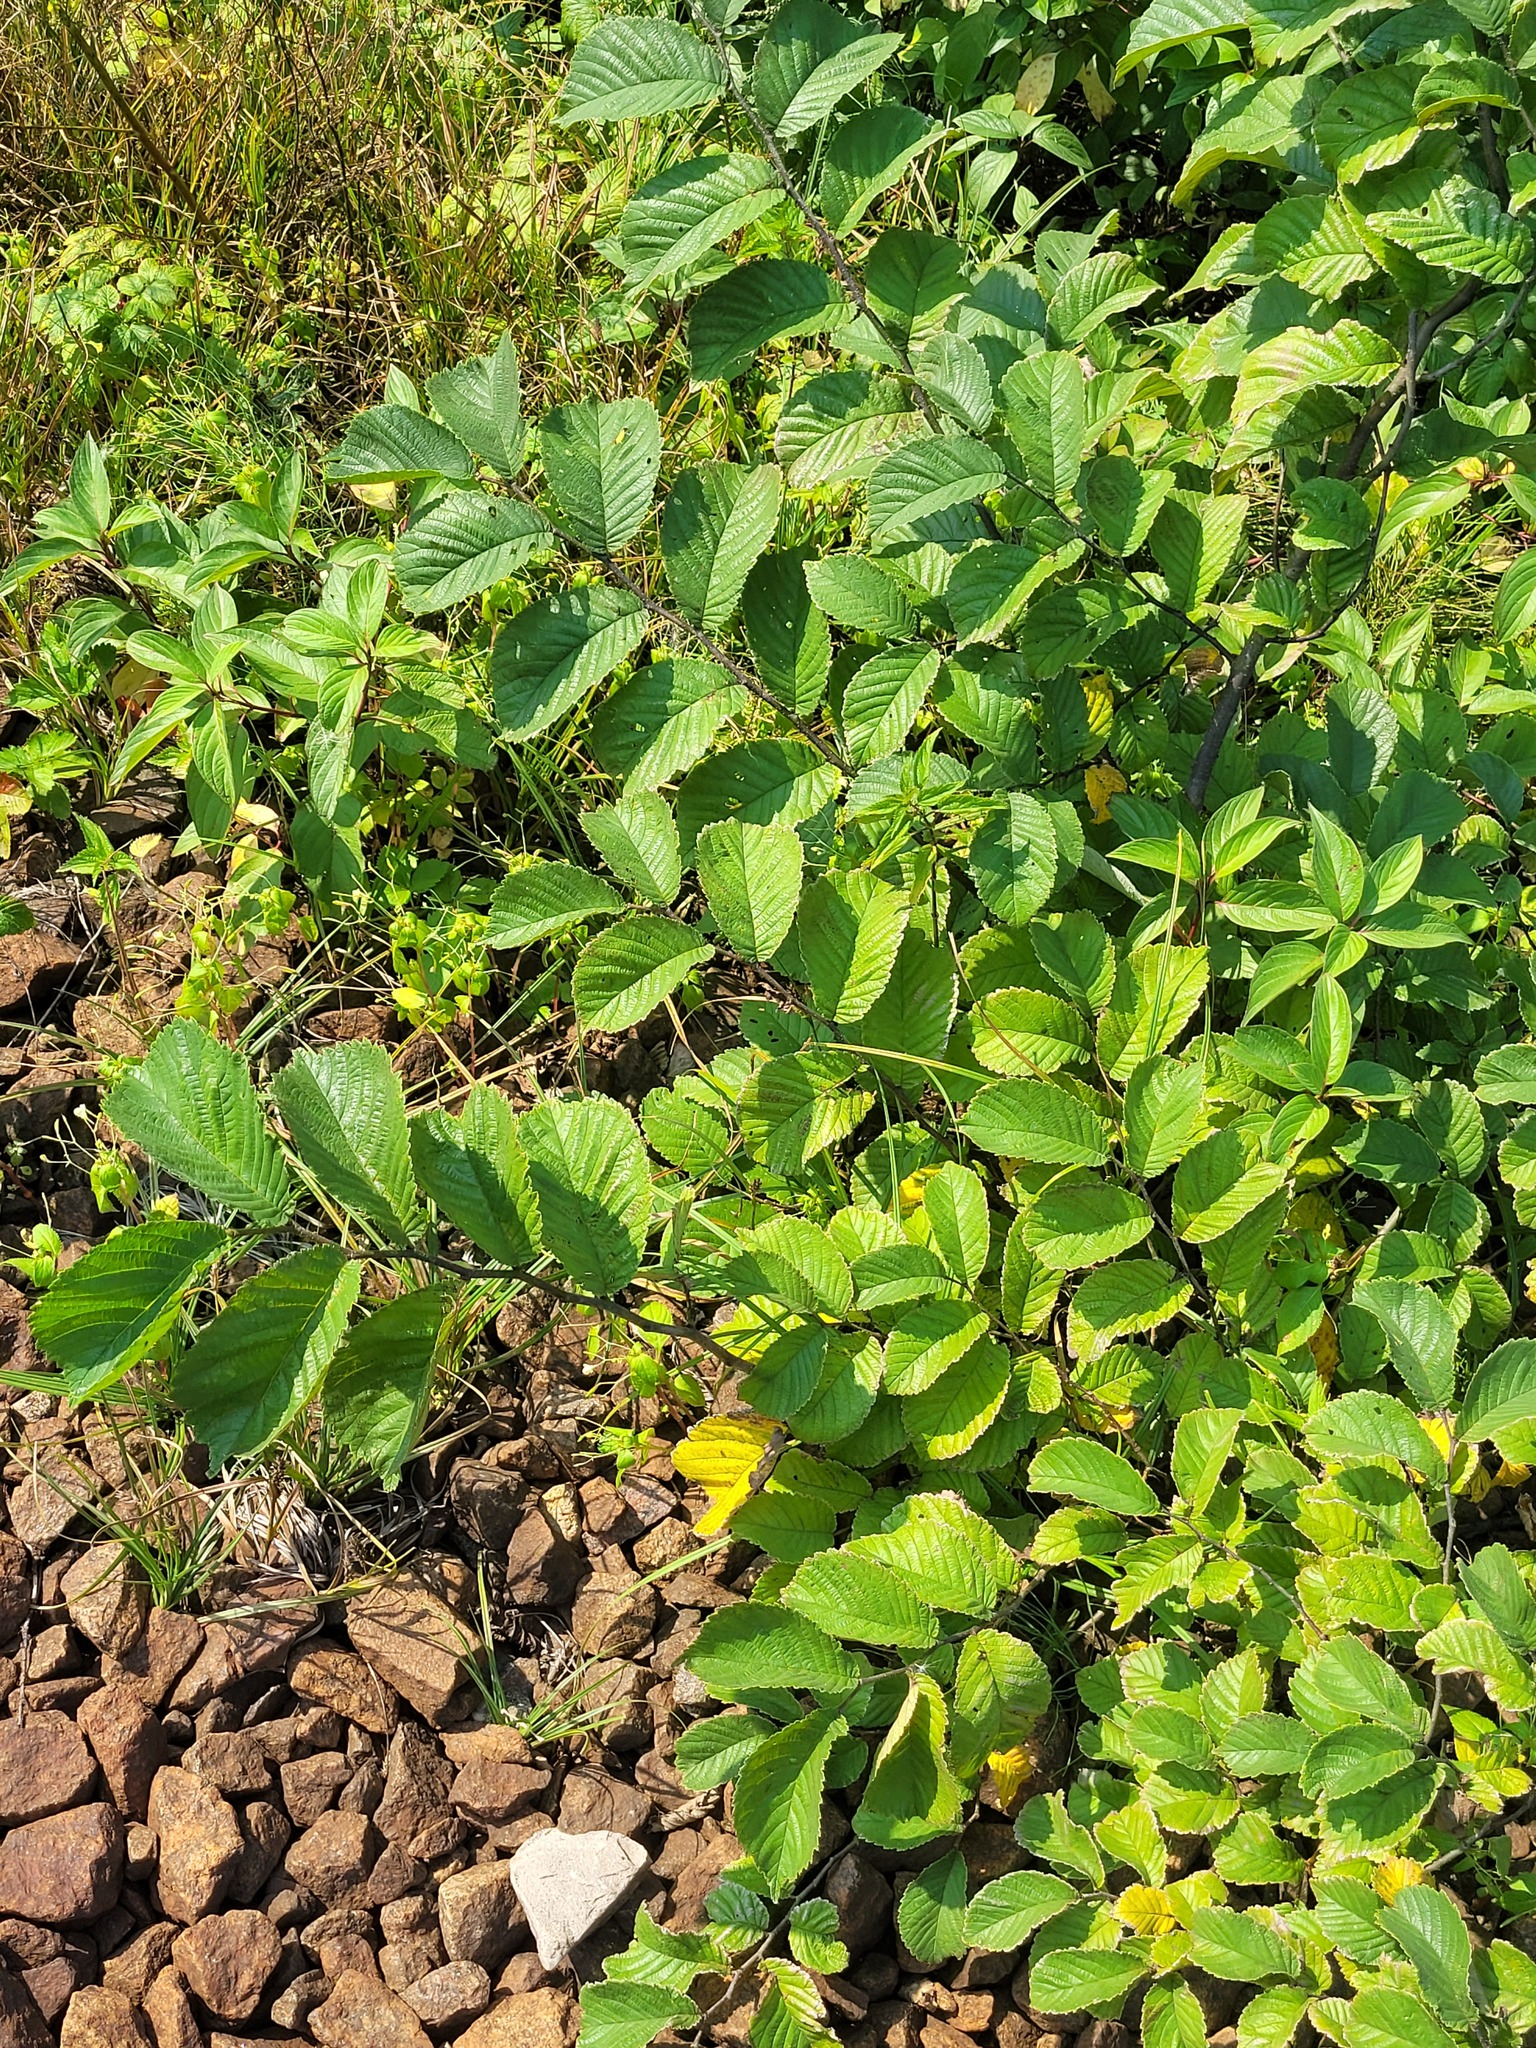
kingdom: Plantae
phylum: Tracheophyta
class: Magnoliopsida
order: Rosales
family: Ulmaceae
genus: Ulmus
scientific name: Ulmus glabra
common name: Wych elm
